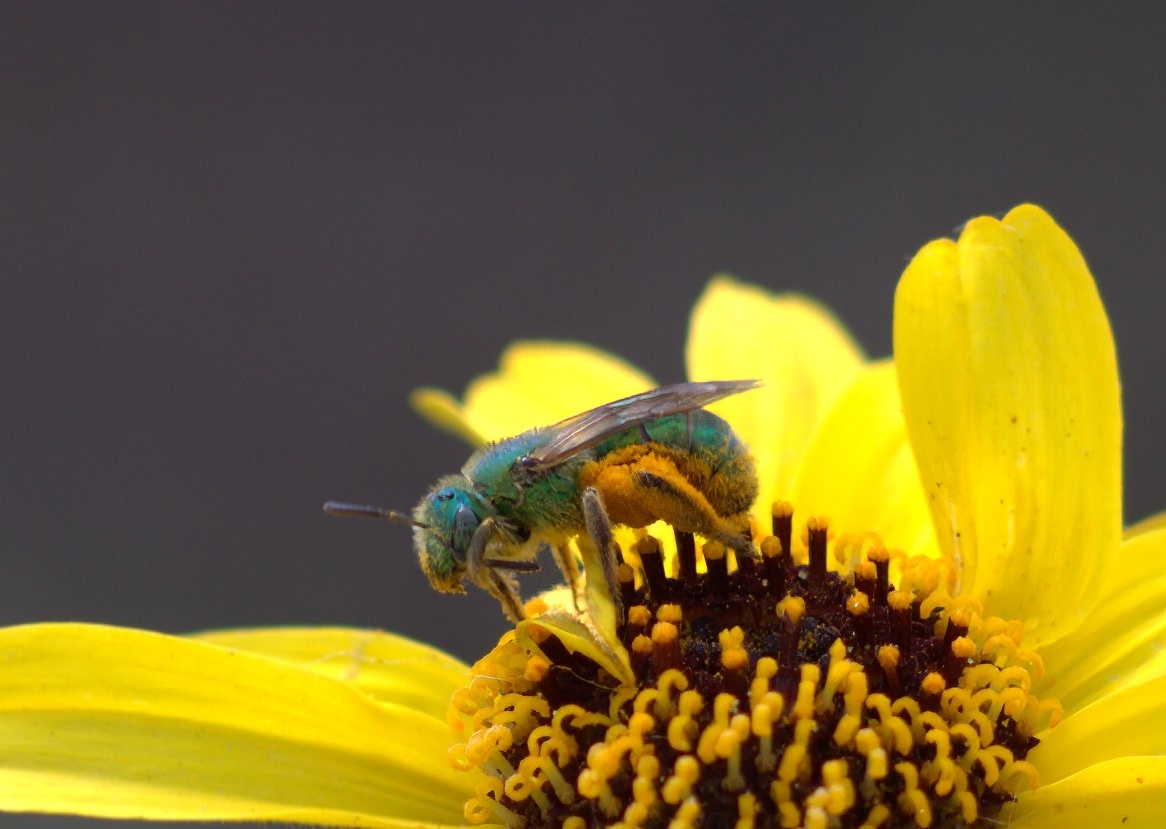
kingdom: Animalia
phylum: Arthropoda
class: Insecta
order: Hymenoptera
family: Halictidae
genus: Agapostemon
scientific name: Agapostemon texanus
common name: Texas striped sweat bee
